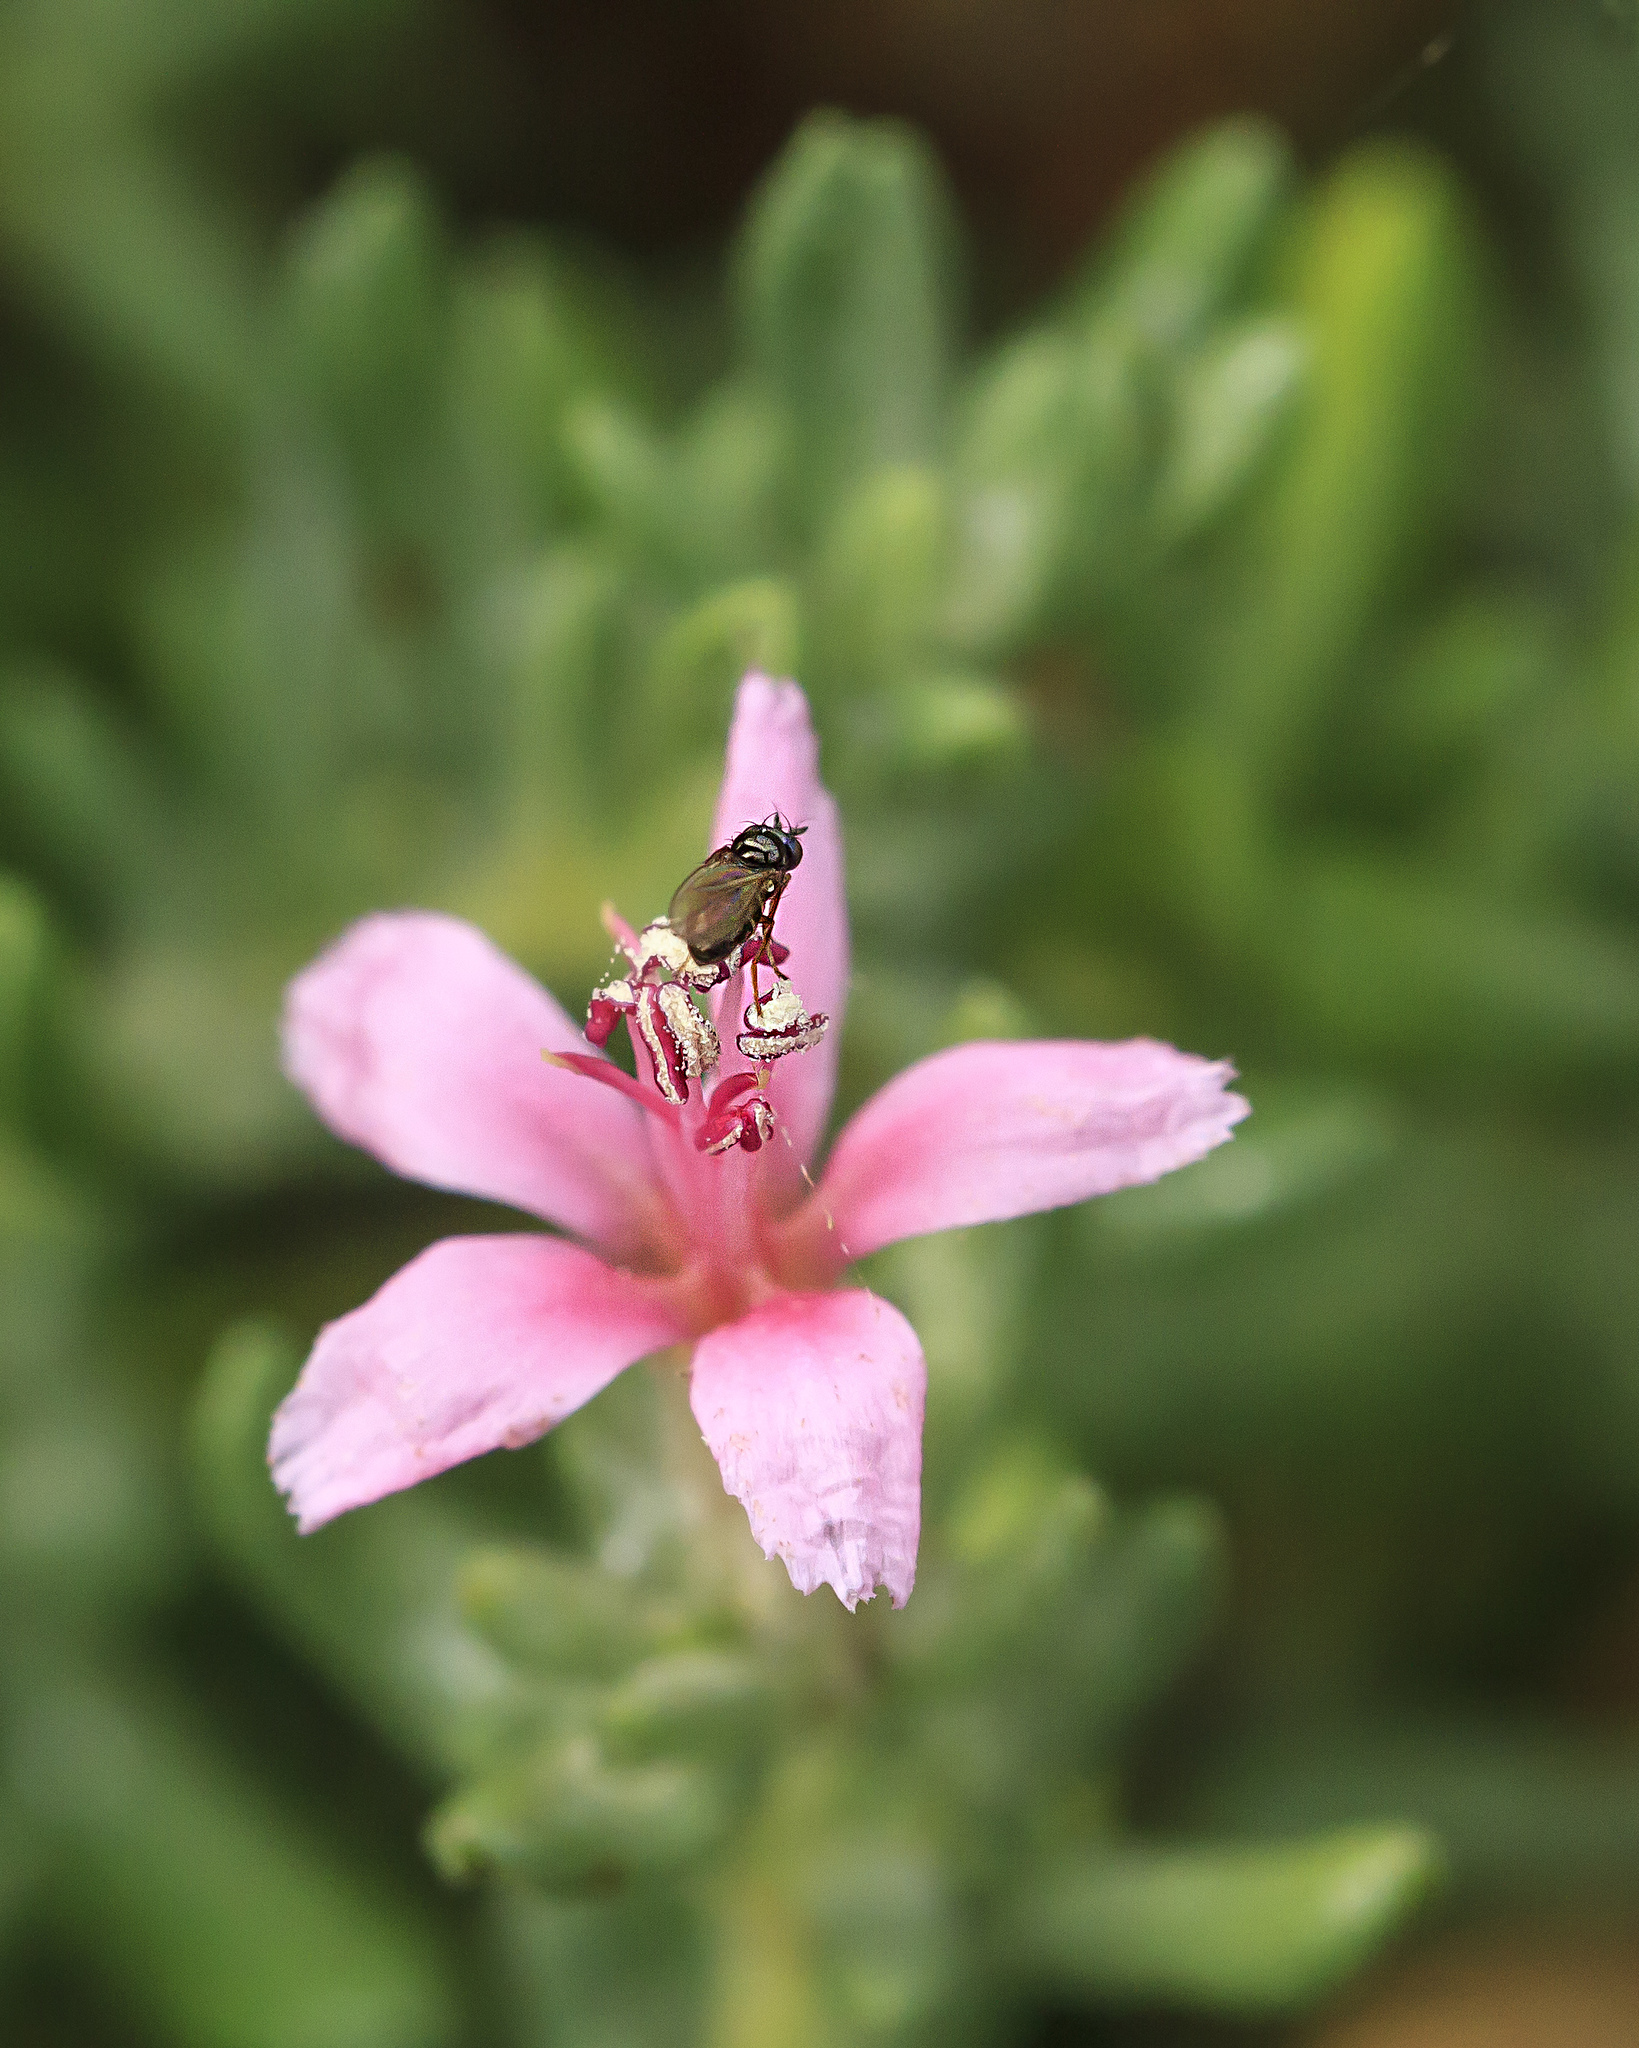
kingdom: Plantae
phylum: Tracheophyta
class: Magnoliopsida
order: Caryophyllales
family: Frankeniaceae
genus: Frankenia
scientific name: Frankenia salina
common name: Alkali seaheath
